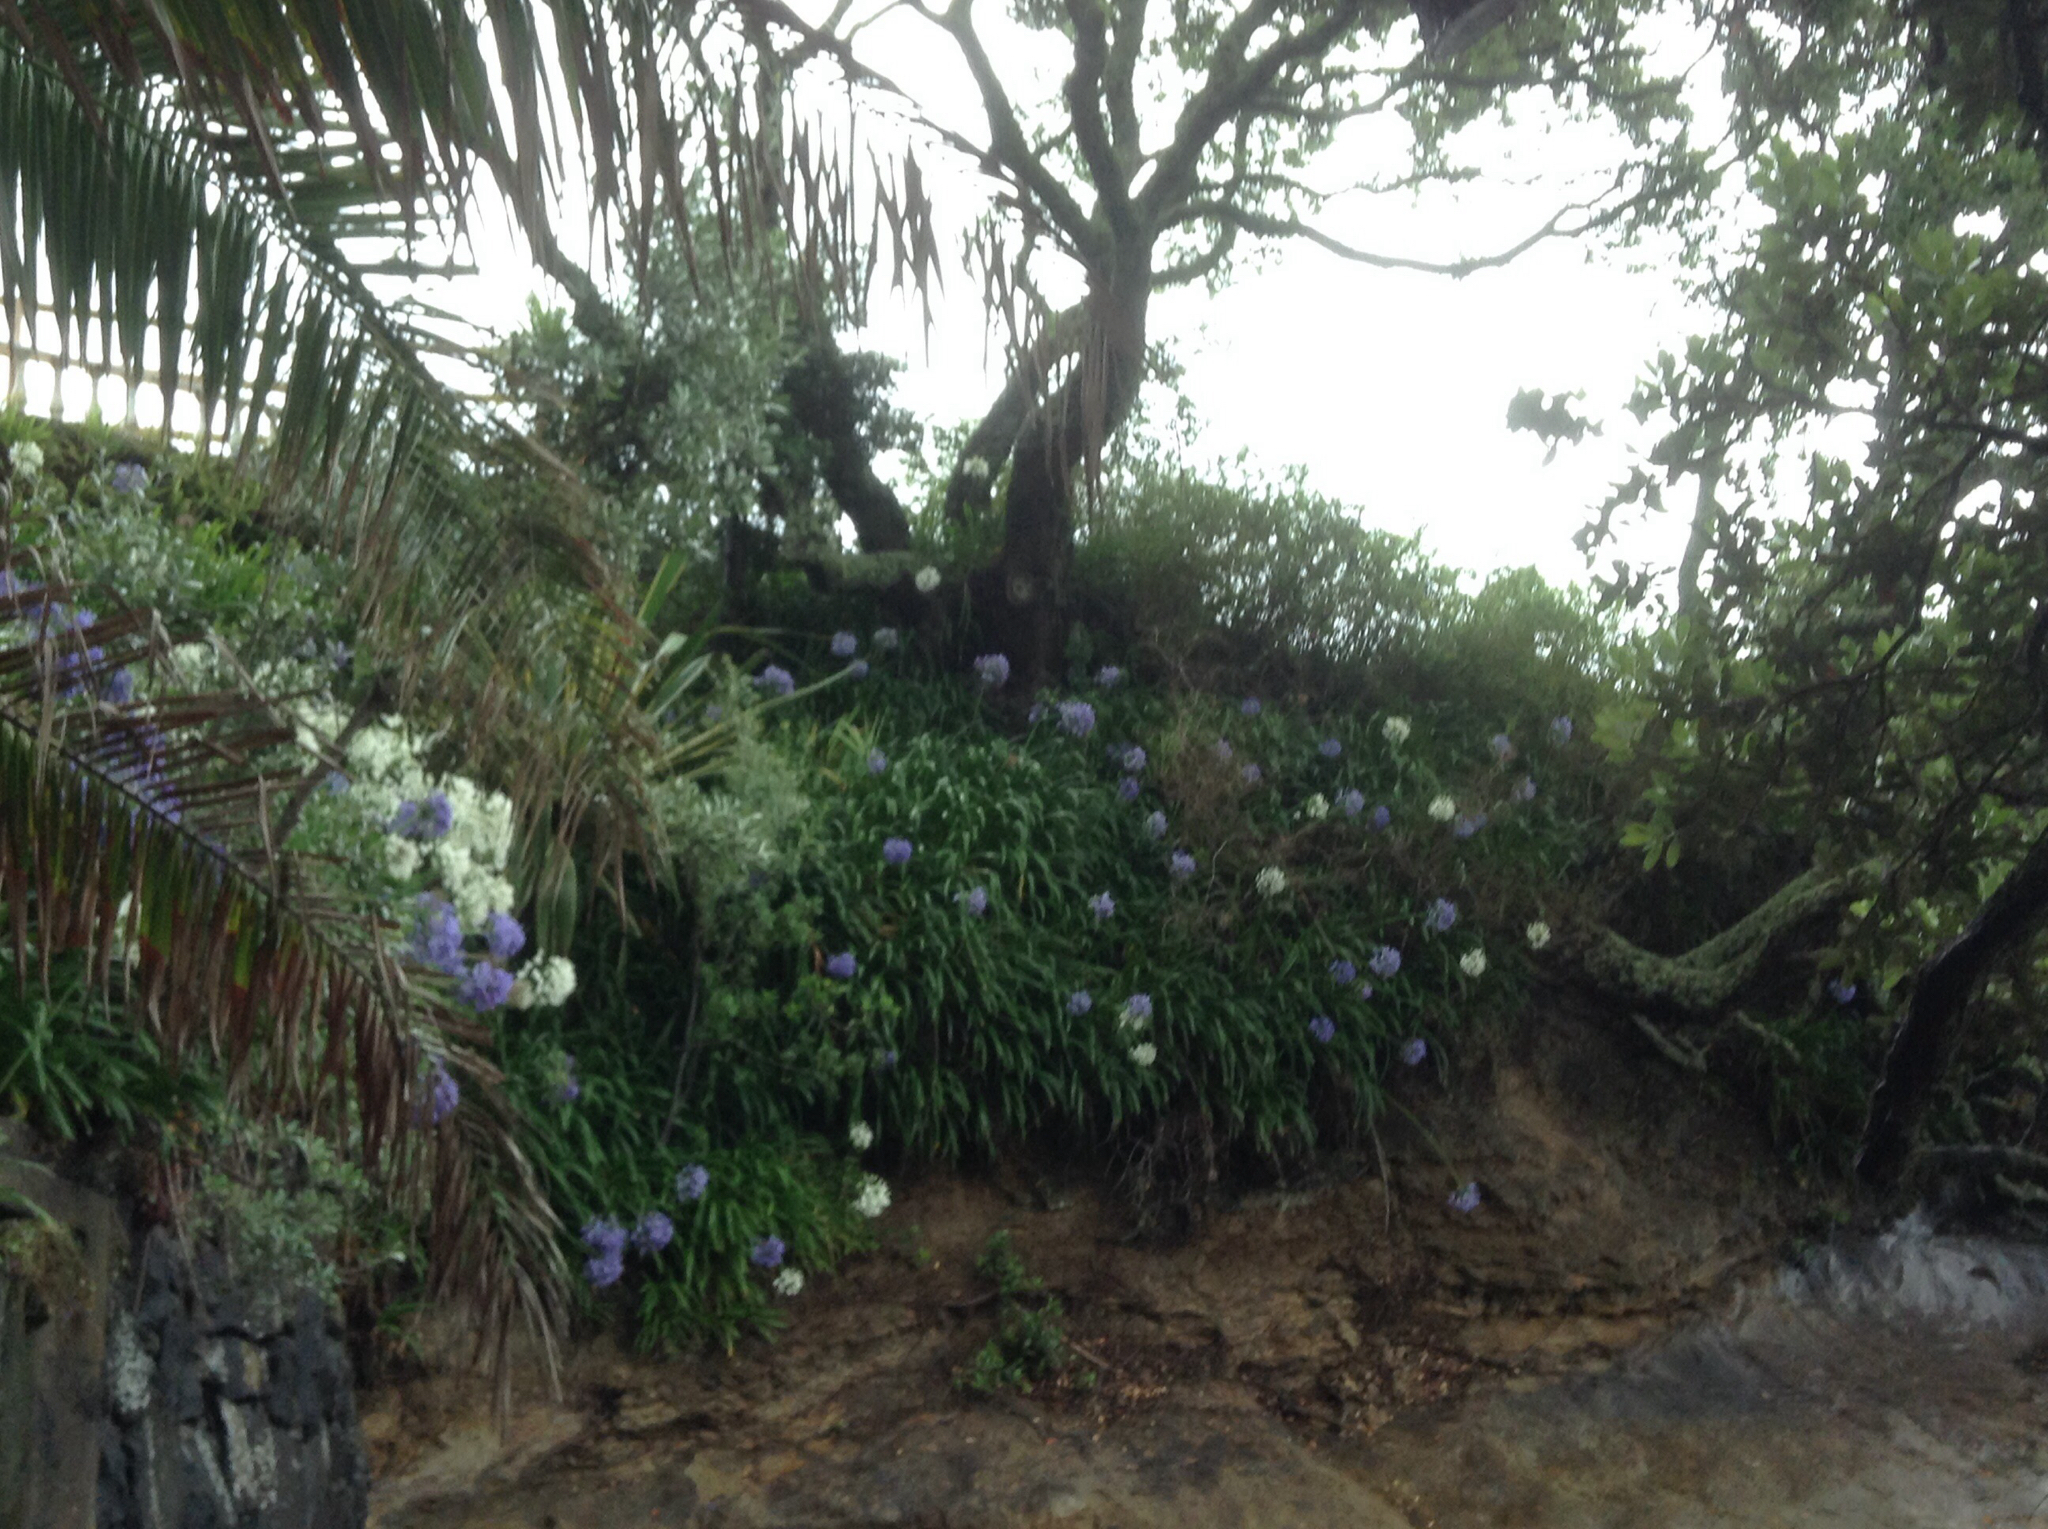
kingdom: Plantae
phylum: Tracheophyta
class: Liliopsida
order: Asparagales
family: Amaryllidaceae
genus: Agapanthus
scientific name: Agapanthus praecox
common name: African-lily
